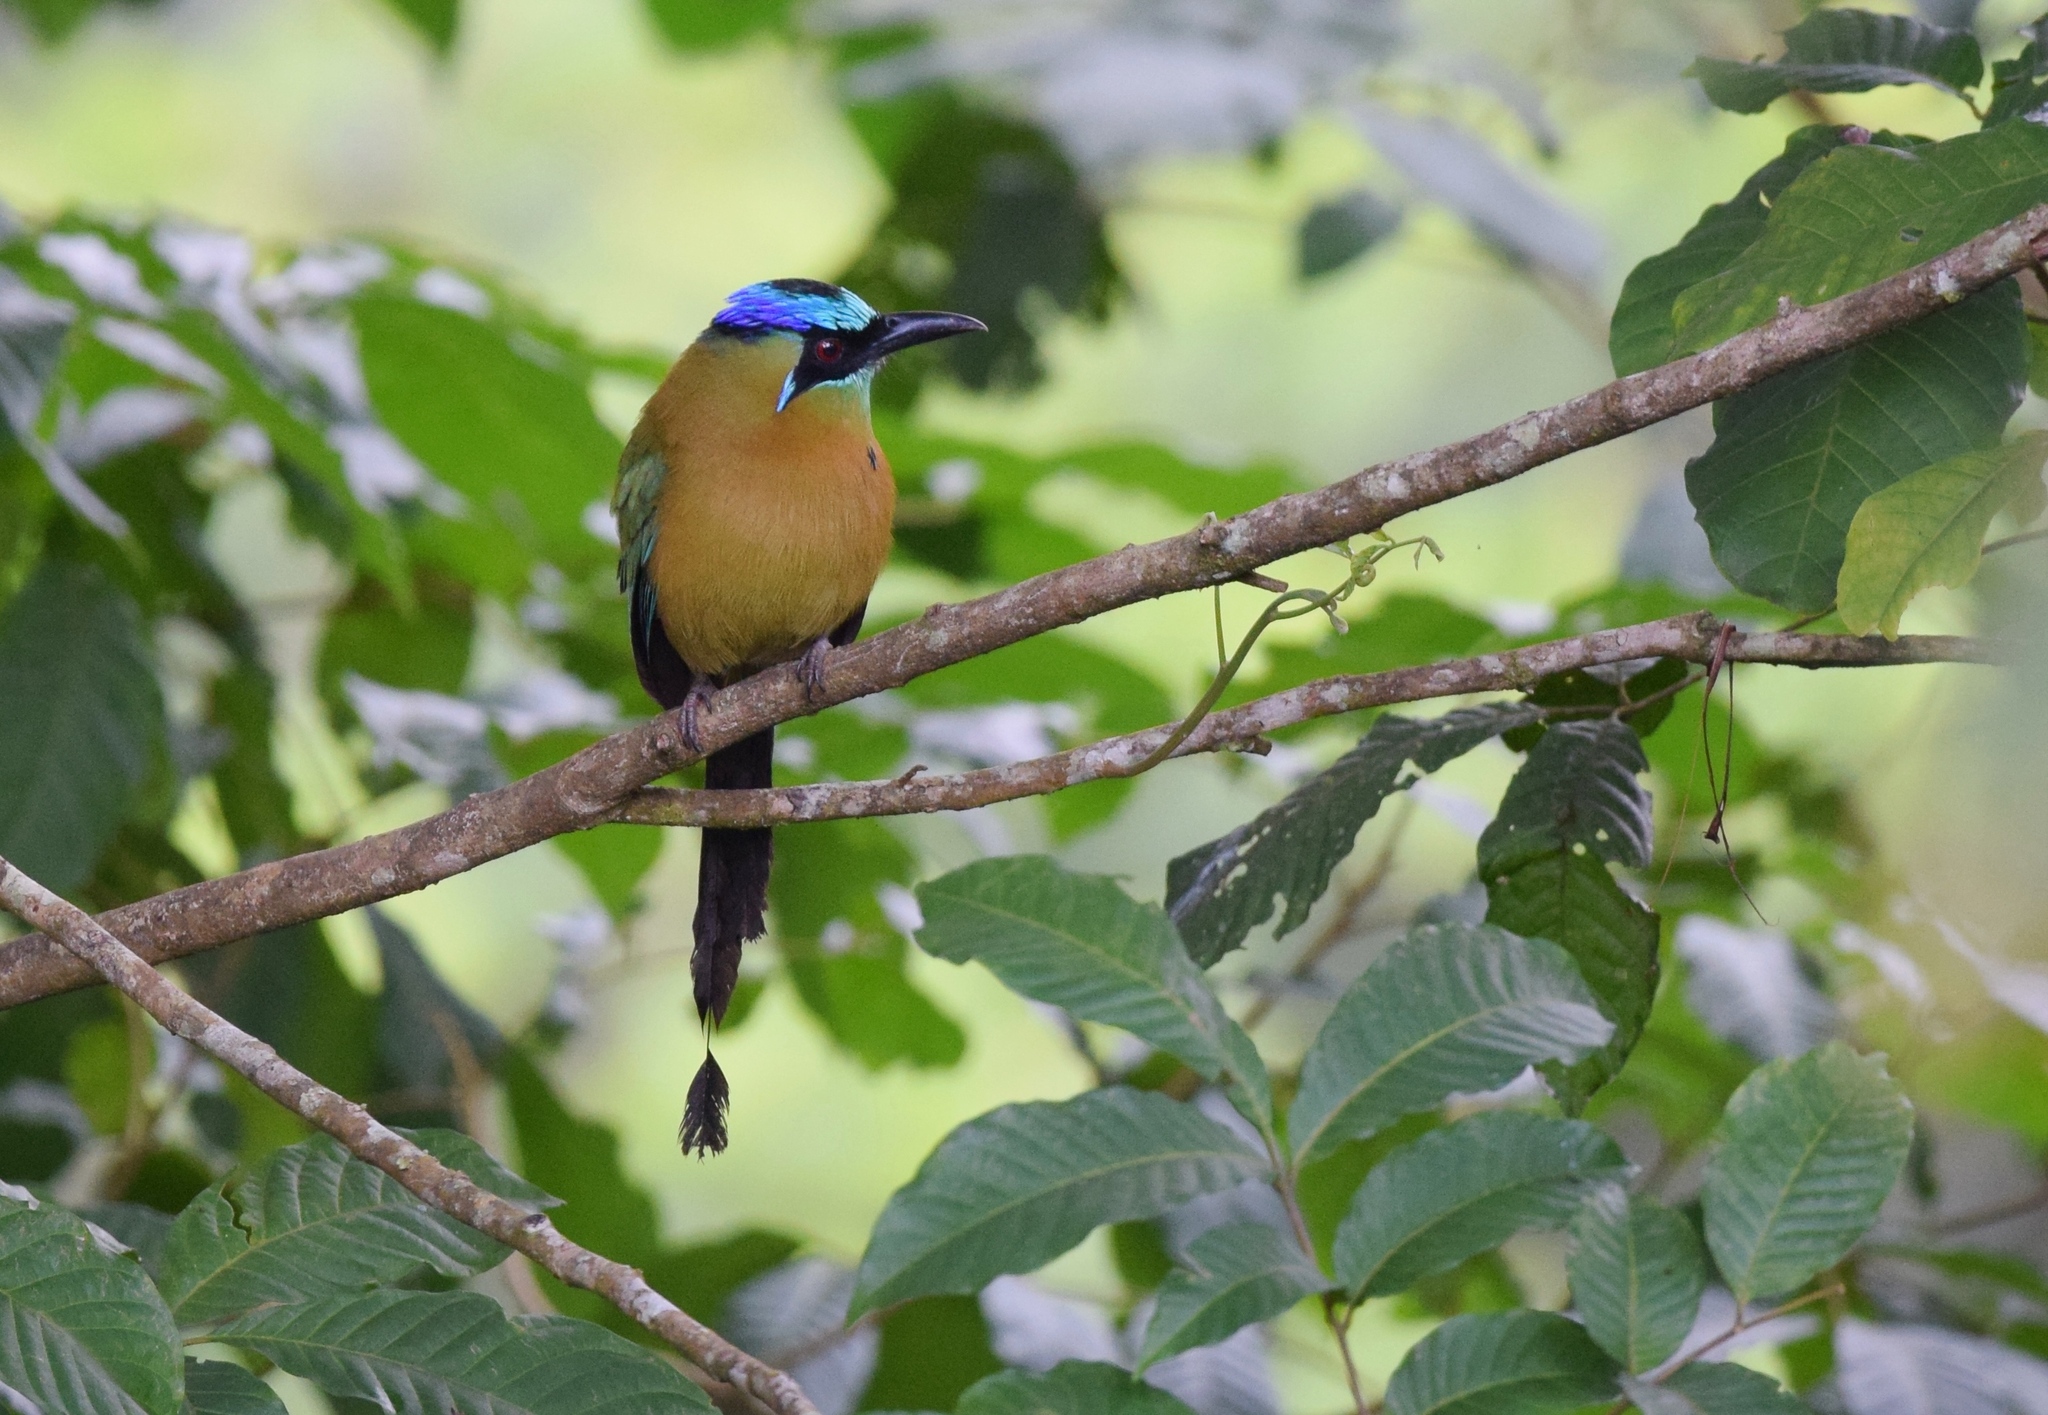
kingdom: Animalia
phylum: Chordata
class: Aves
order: Coraciiformes
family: Momotidae
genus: Momotus
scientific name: Momotus lessonii
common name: Lesson's motmot
